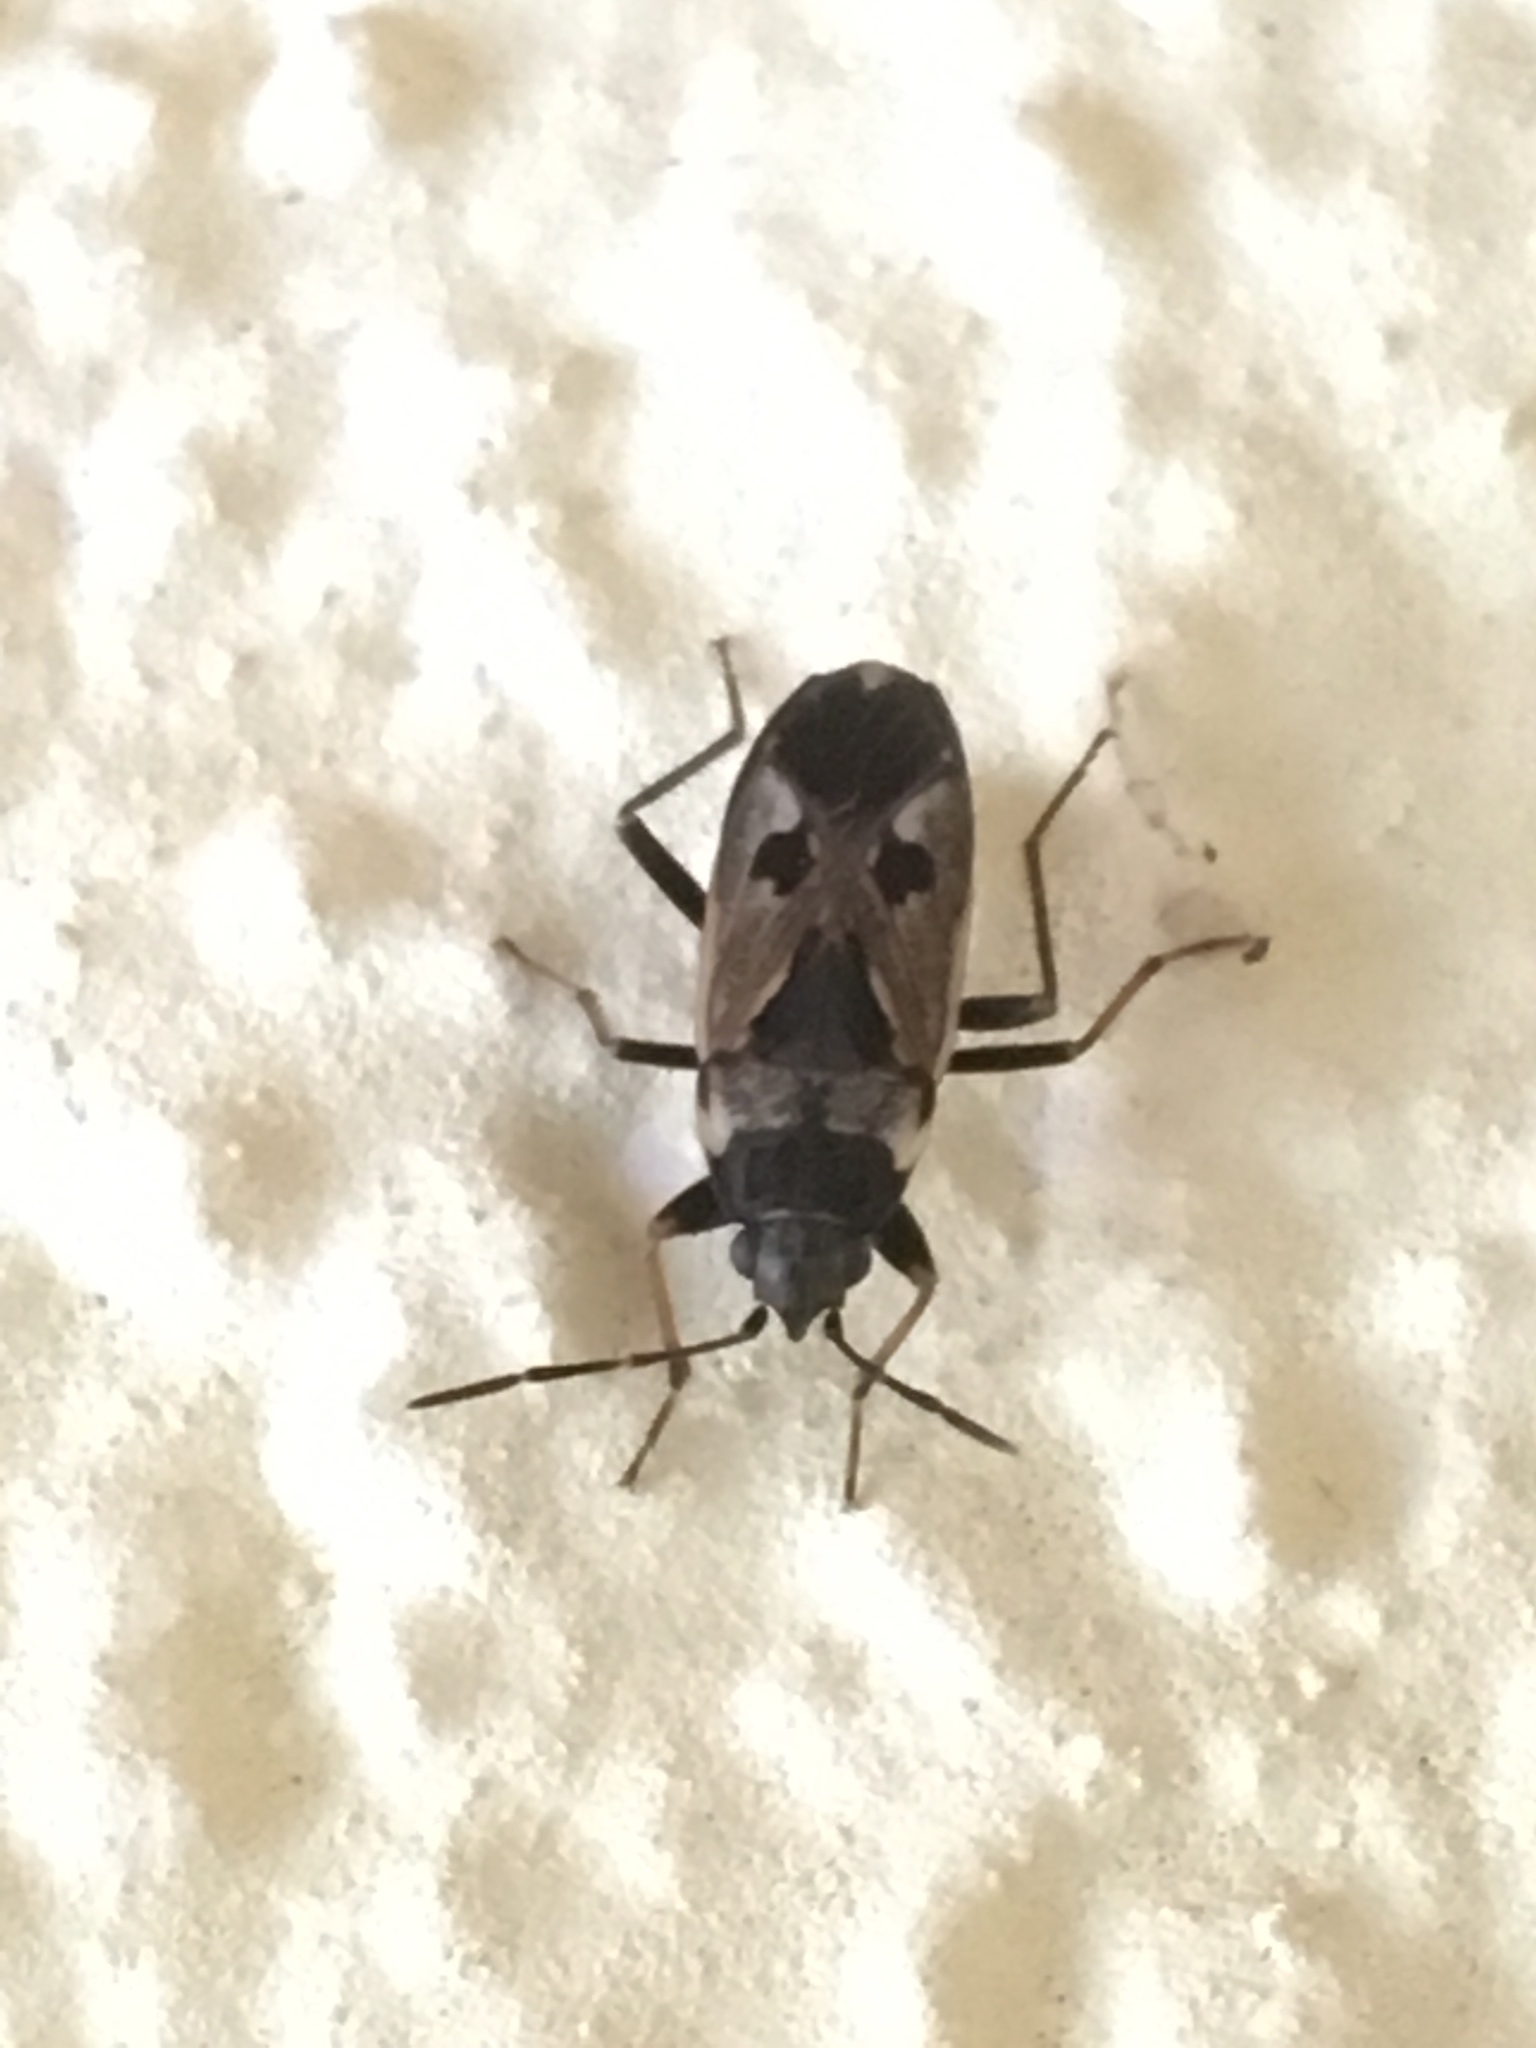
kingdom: Animalia
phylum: Arthropoda
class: Insecta
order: Hemiptera
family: Rhyparochromidae
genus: Rhyparochromus
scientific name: Rhyparochromus vulgaris
